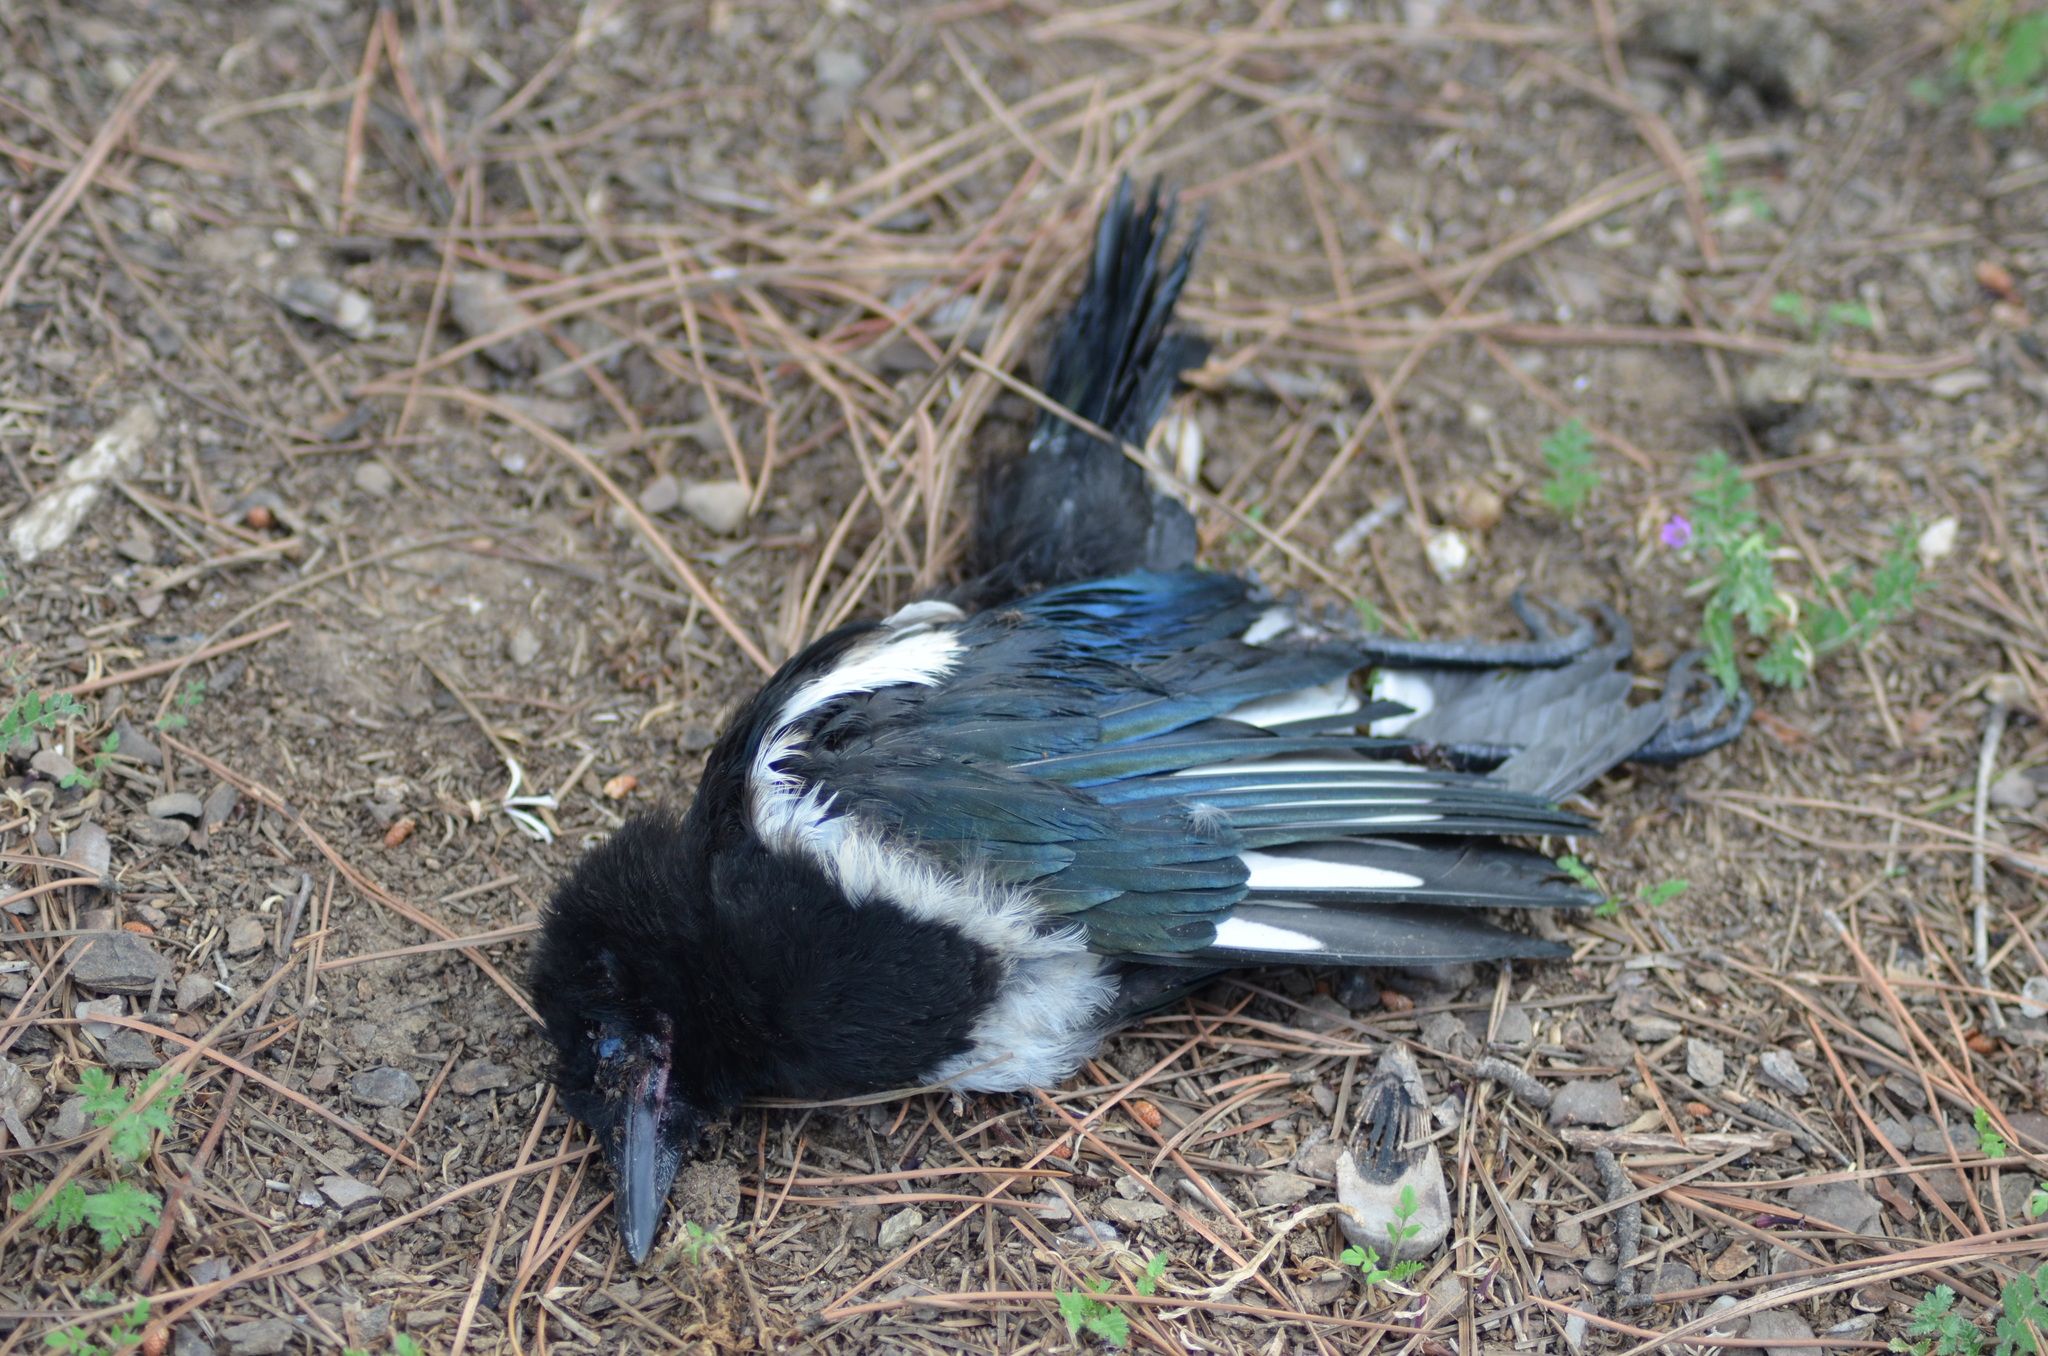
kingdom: Animalia
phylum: Chordata
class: Aves
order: Passeriformes
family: Corvidae
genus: Pica
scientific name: Pica pica
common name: Eurasian magpie
